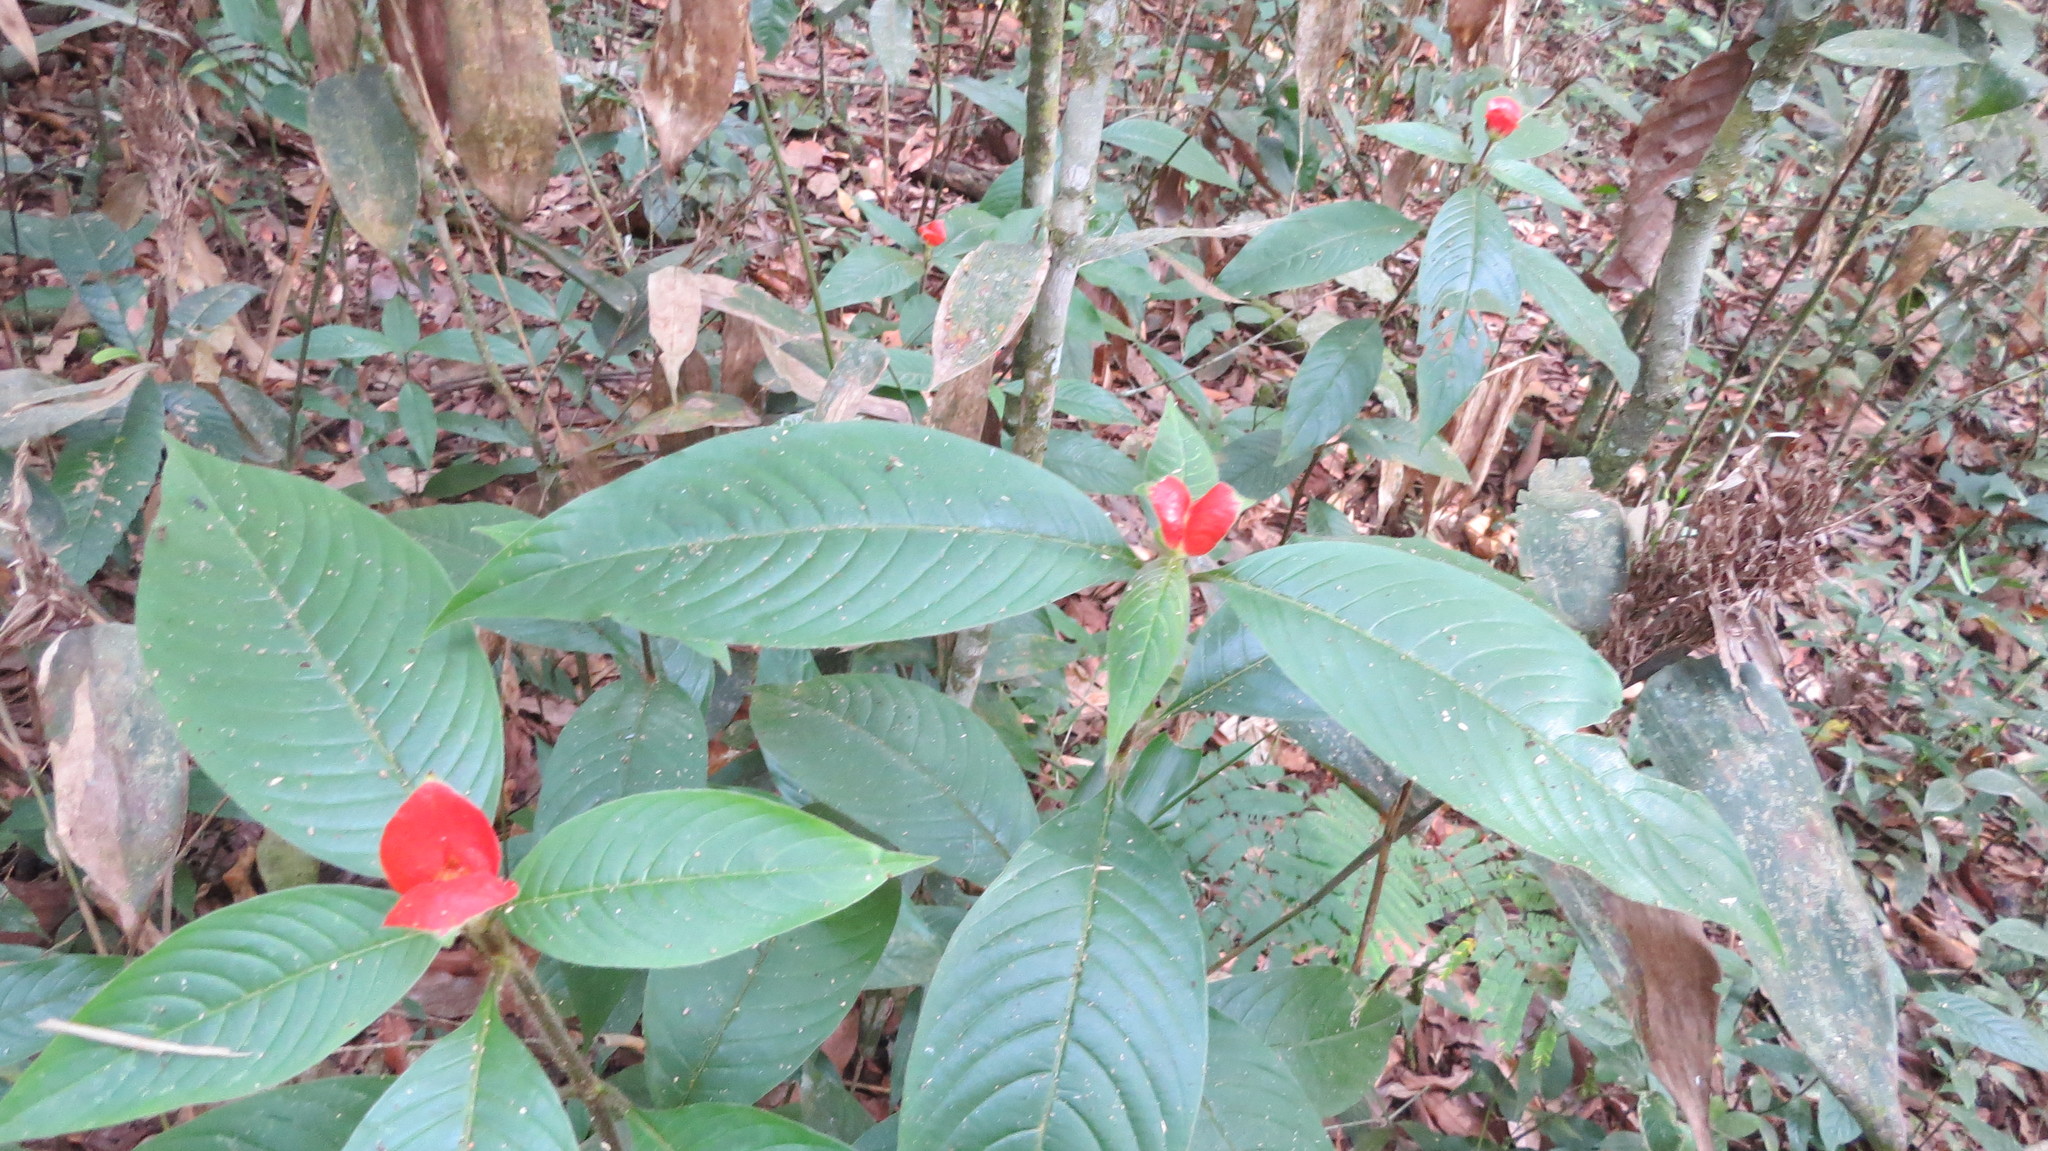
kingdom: Plantae
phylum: Tracheophyta
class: Magnoliopsida
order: Gentianales
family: Rubiaceae
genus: Palicourea
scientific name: Palicourea tomentosa
